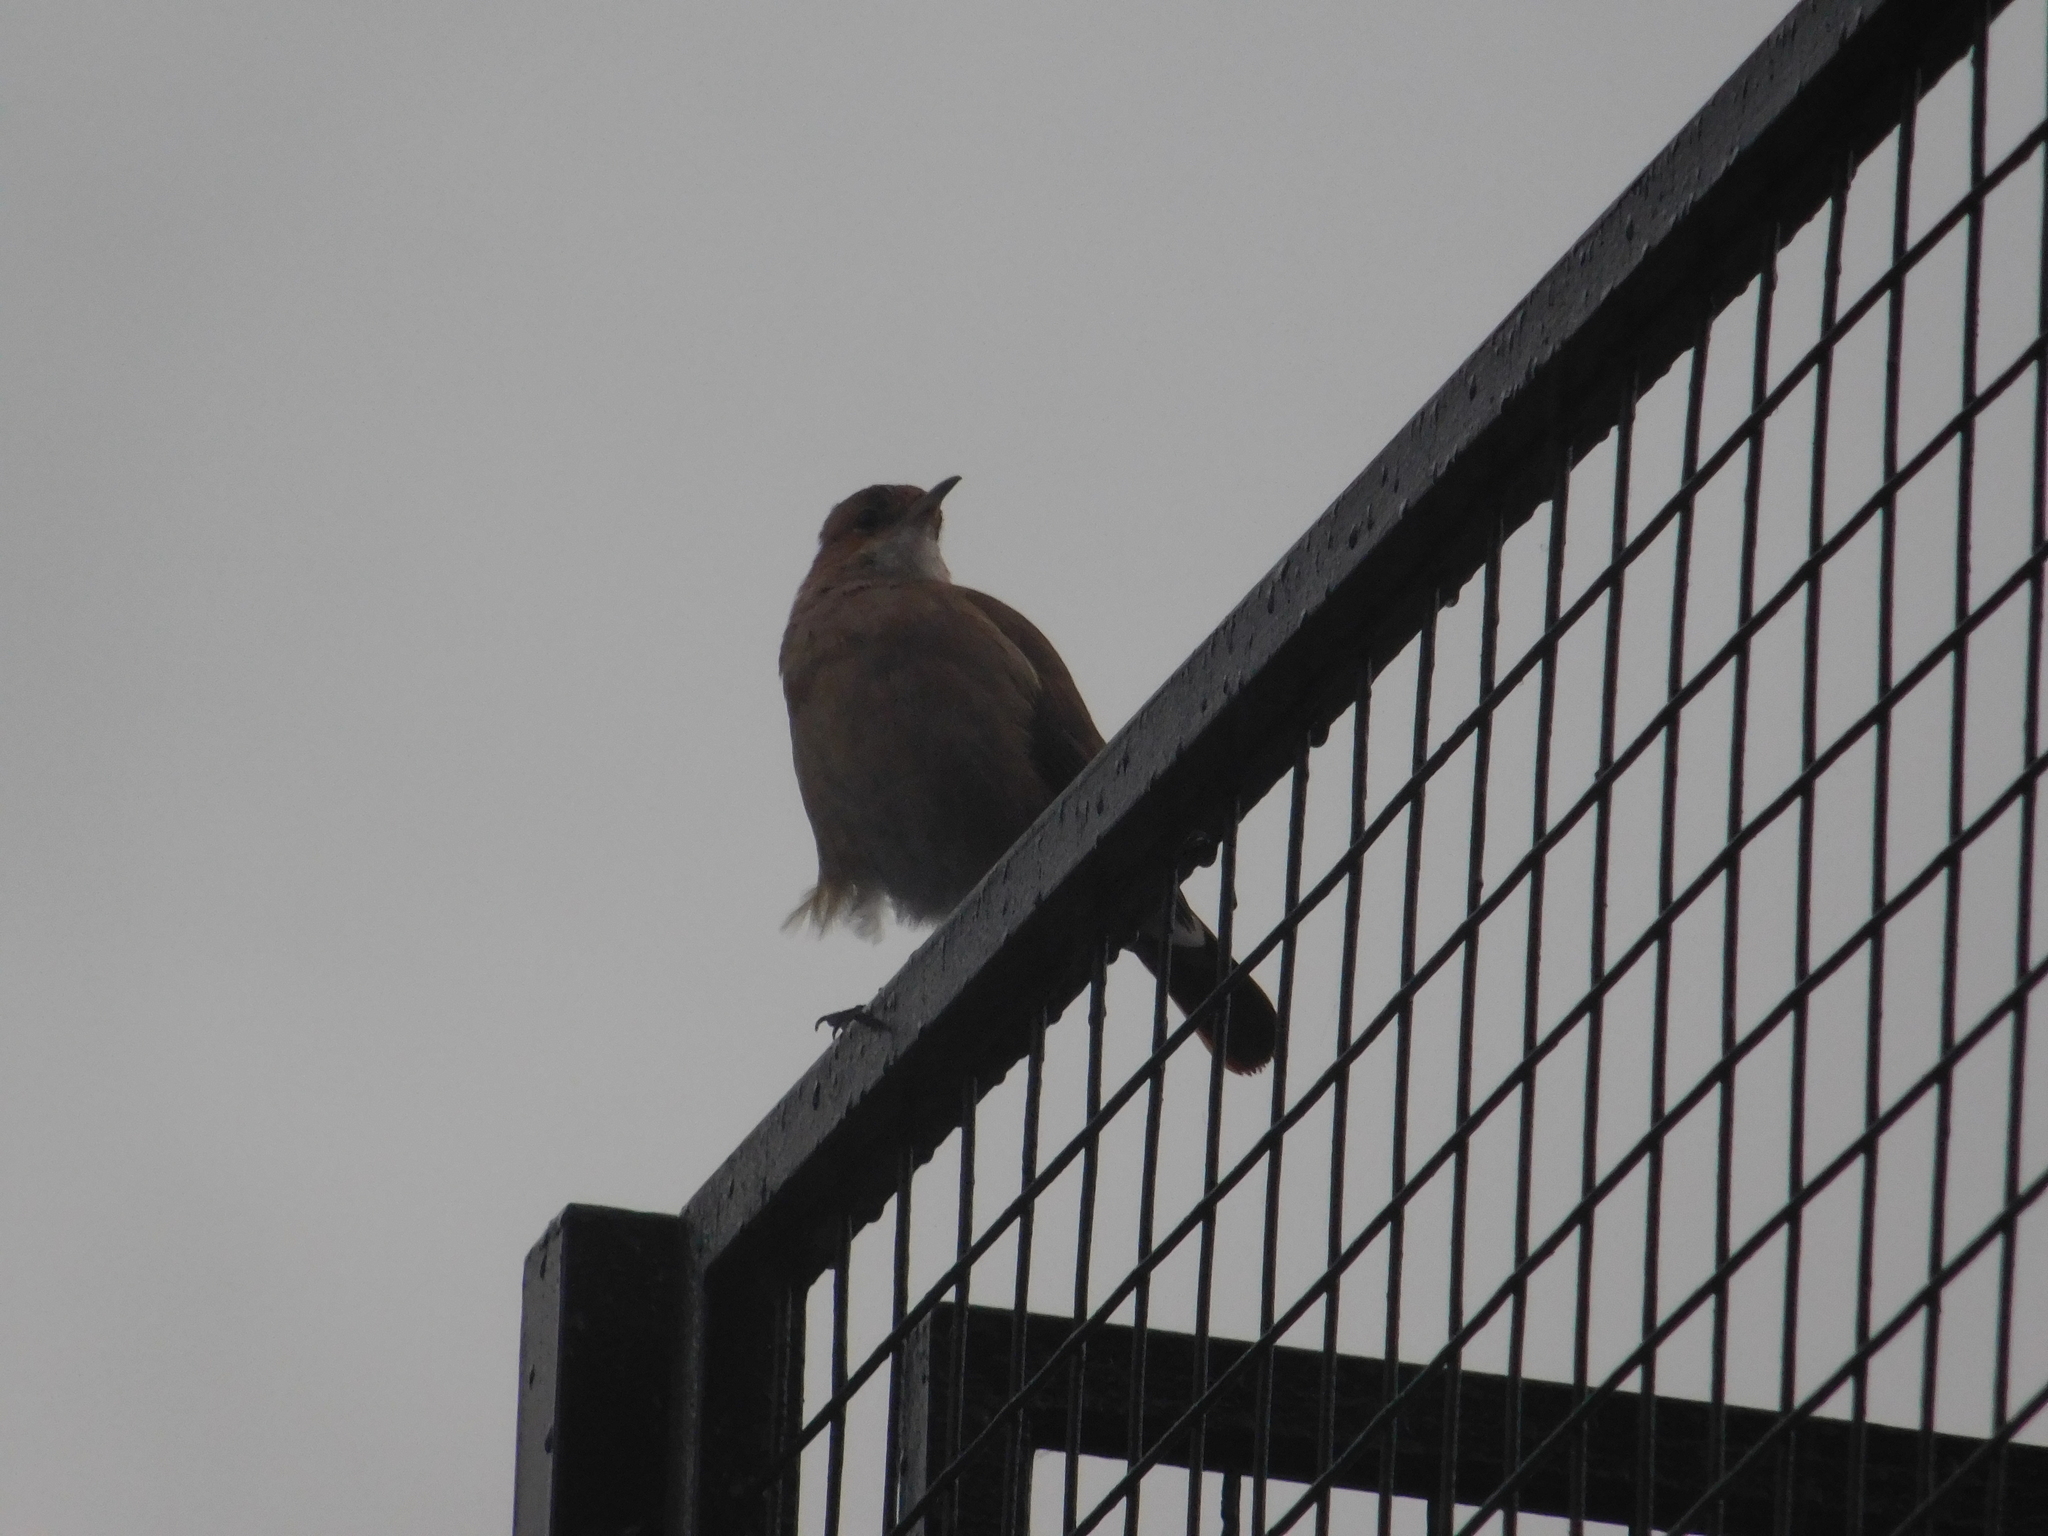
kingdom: Animalia
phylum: Chordata
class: Aves
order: Passeriformes
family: Furnariidae
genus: Furnarius
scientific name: Furnarius rufus
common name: Rufous hornero
